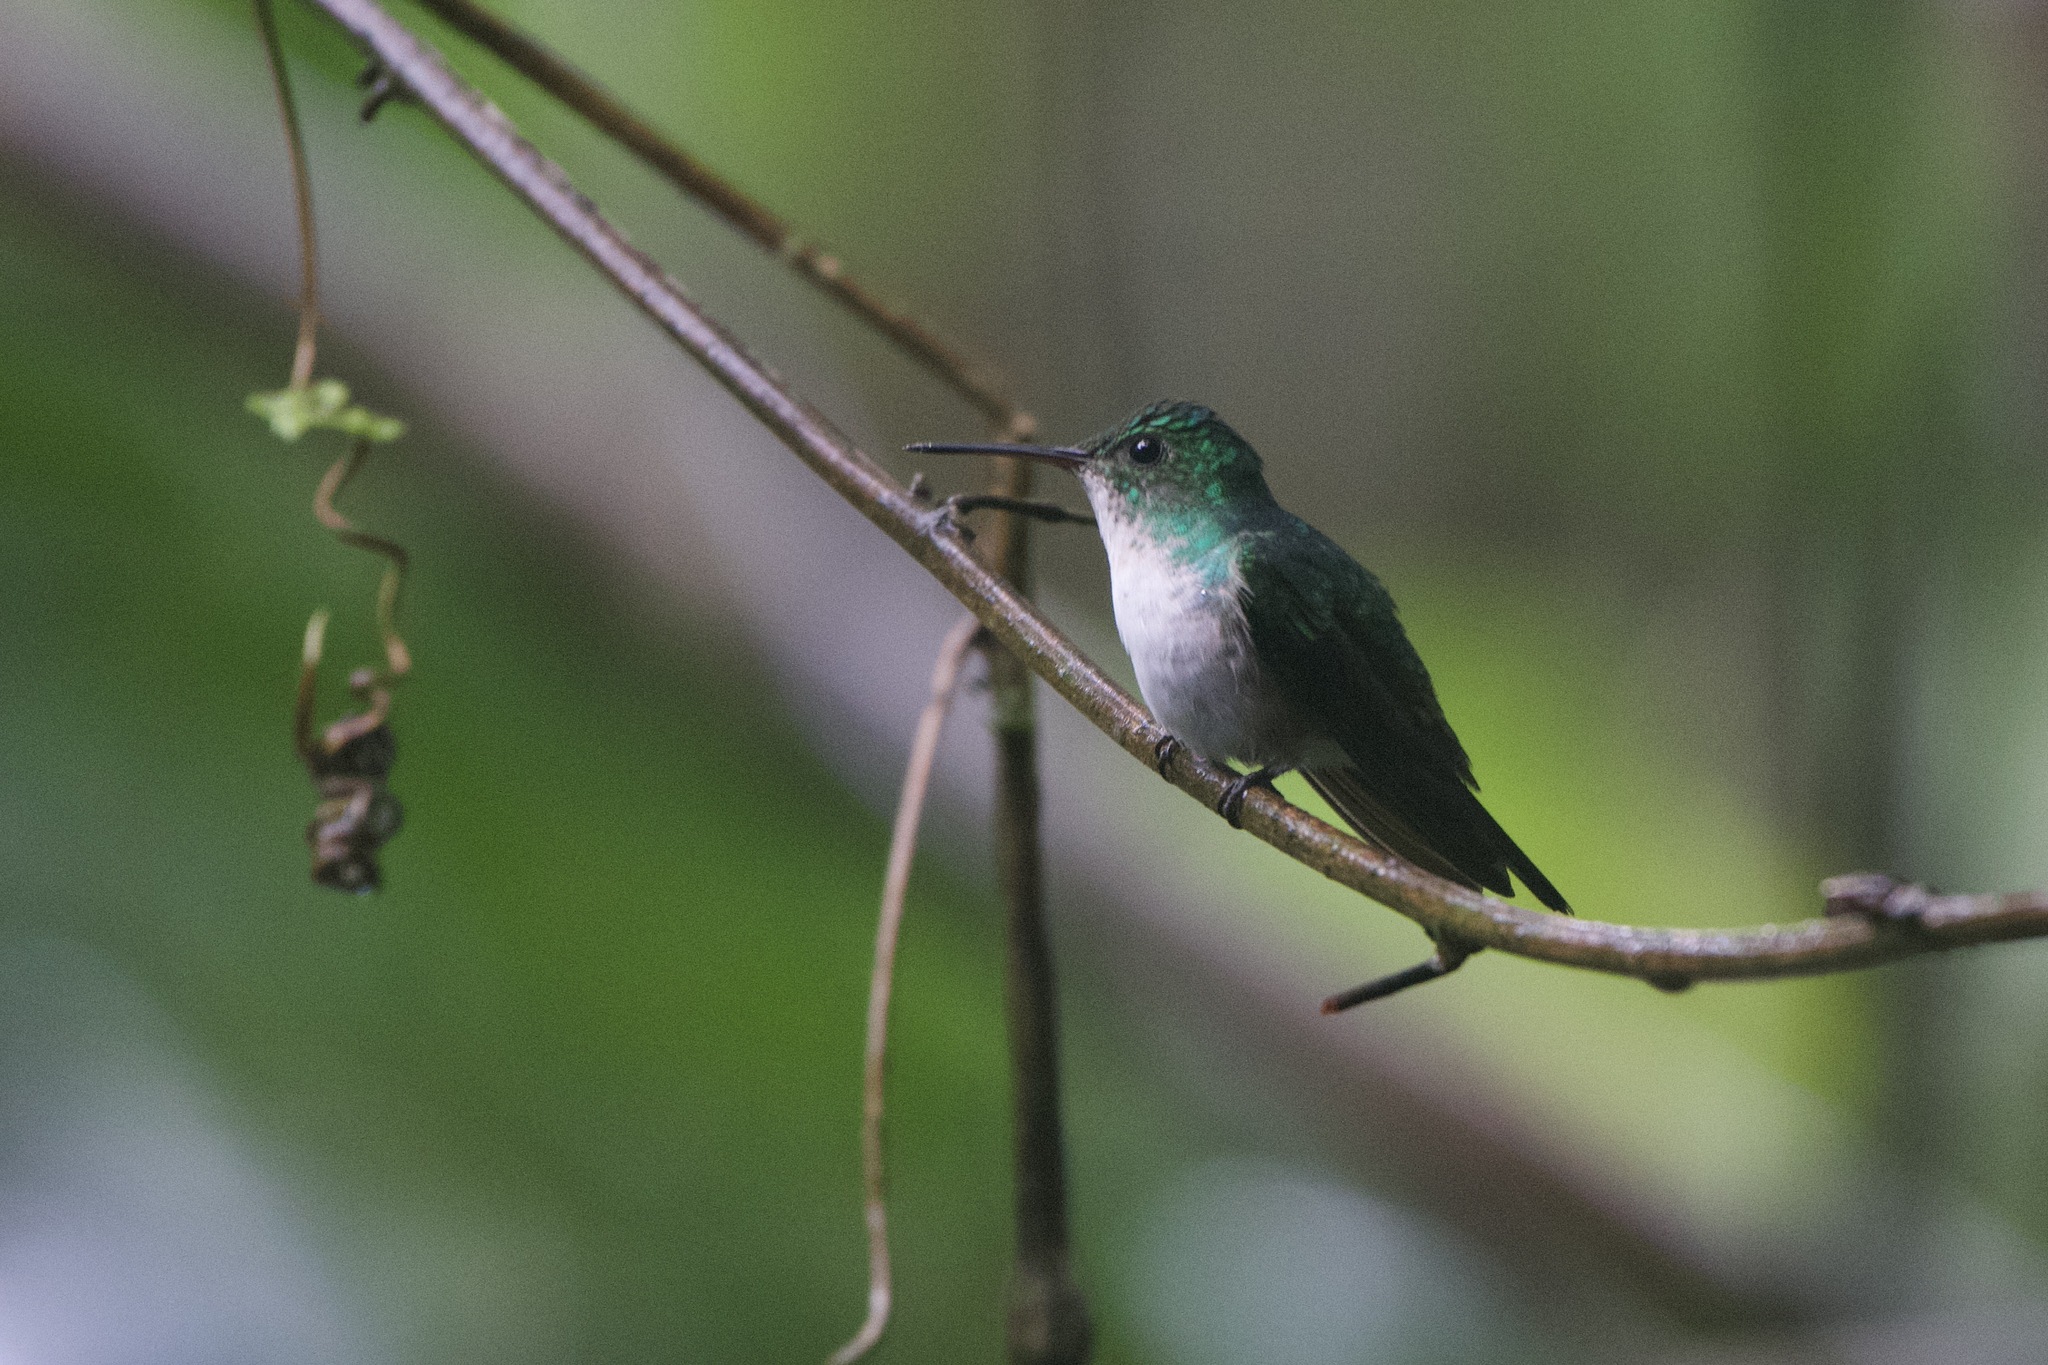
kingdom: Animalia
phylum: Chordata
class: Aves
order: Apodiformes
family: Trochilidae
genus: Chlorestes
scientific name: Chlorestes julie
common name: Violet-bellied hummingbird
